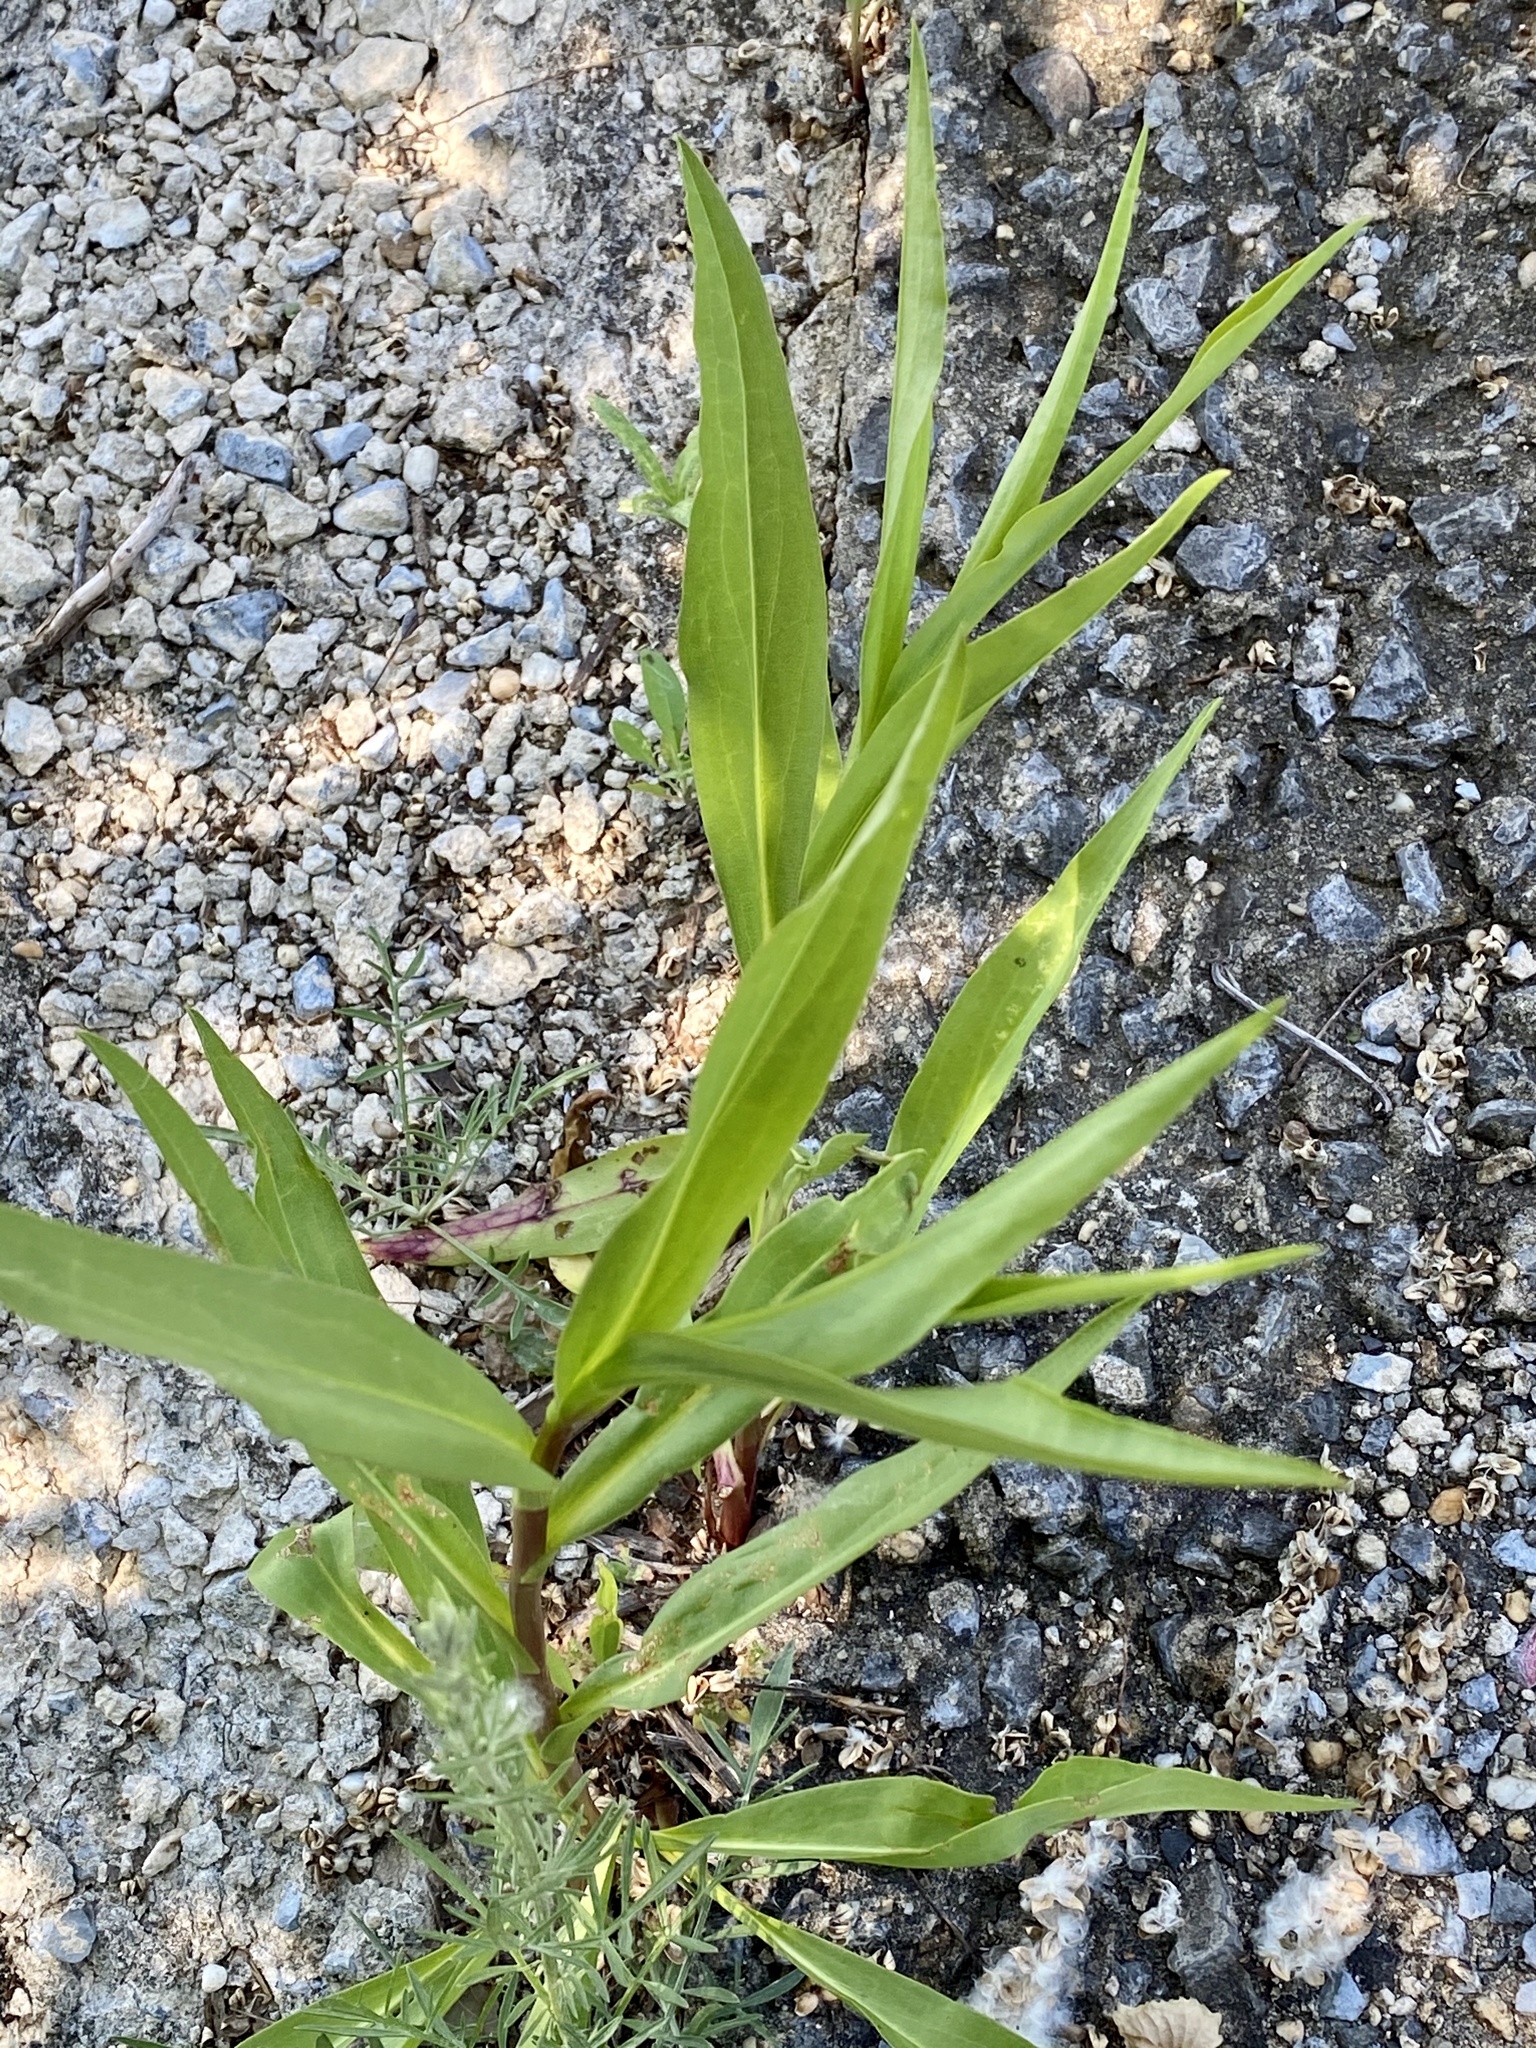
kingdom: Plantae
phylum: Tracheophyta
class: Magnoliopsida
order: Asterales
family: Asteraceae
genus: Solidago
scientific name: Solidago sempervirens
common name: Salt-marsh goldenrod
